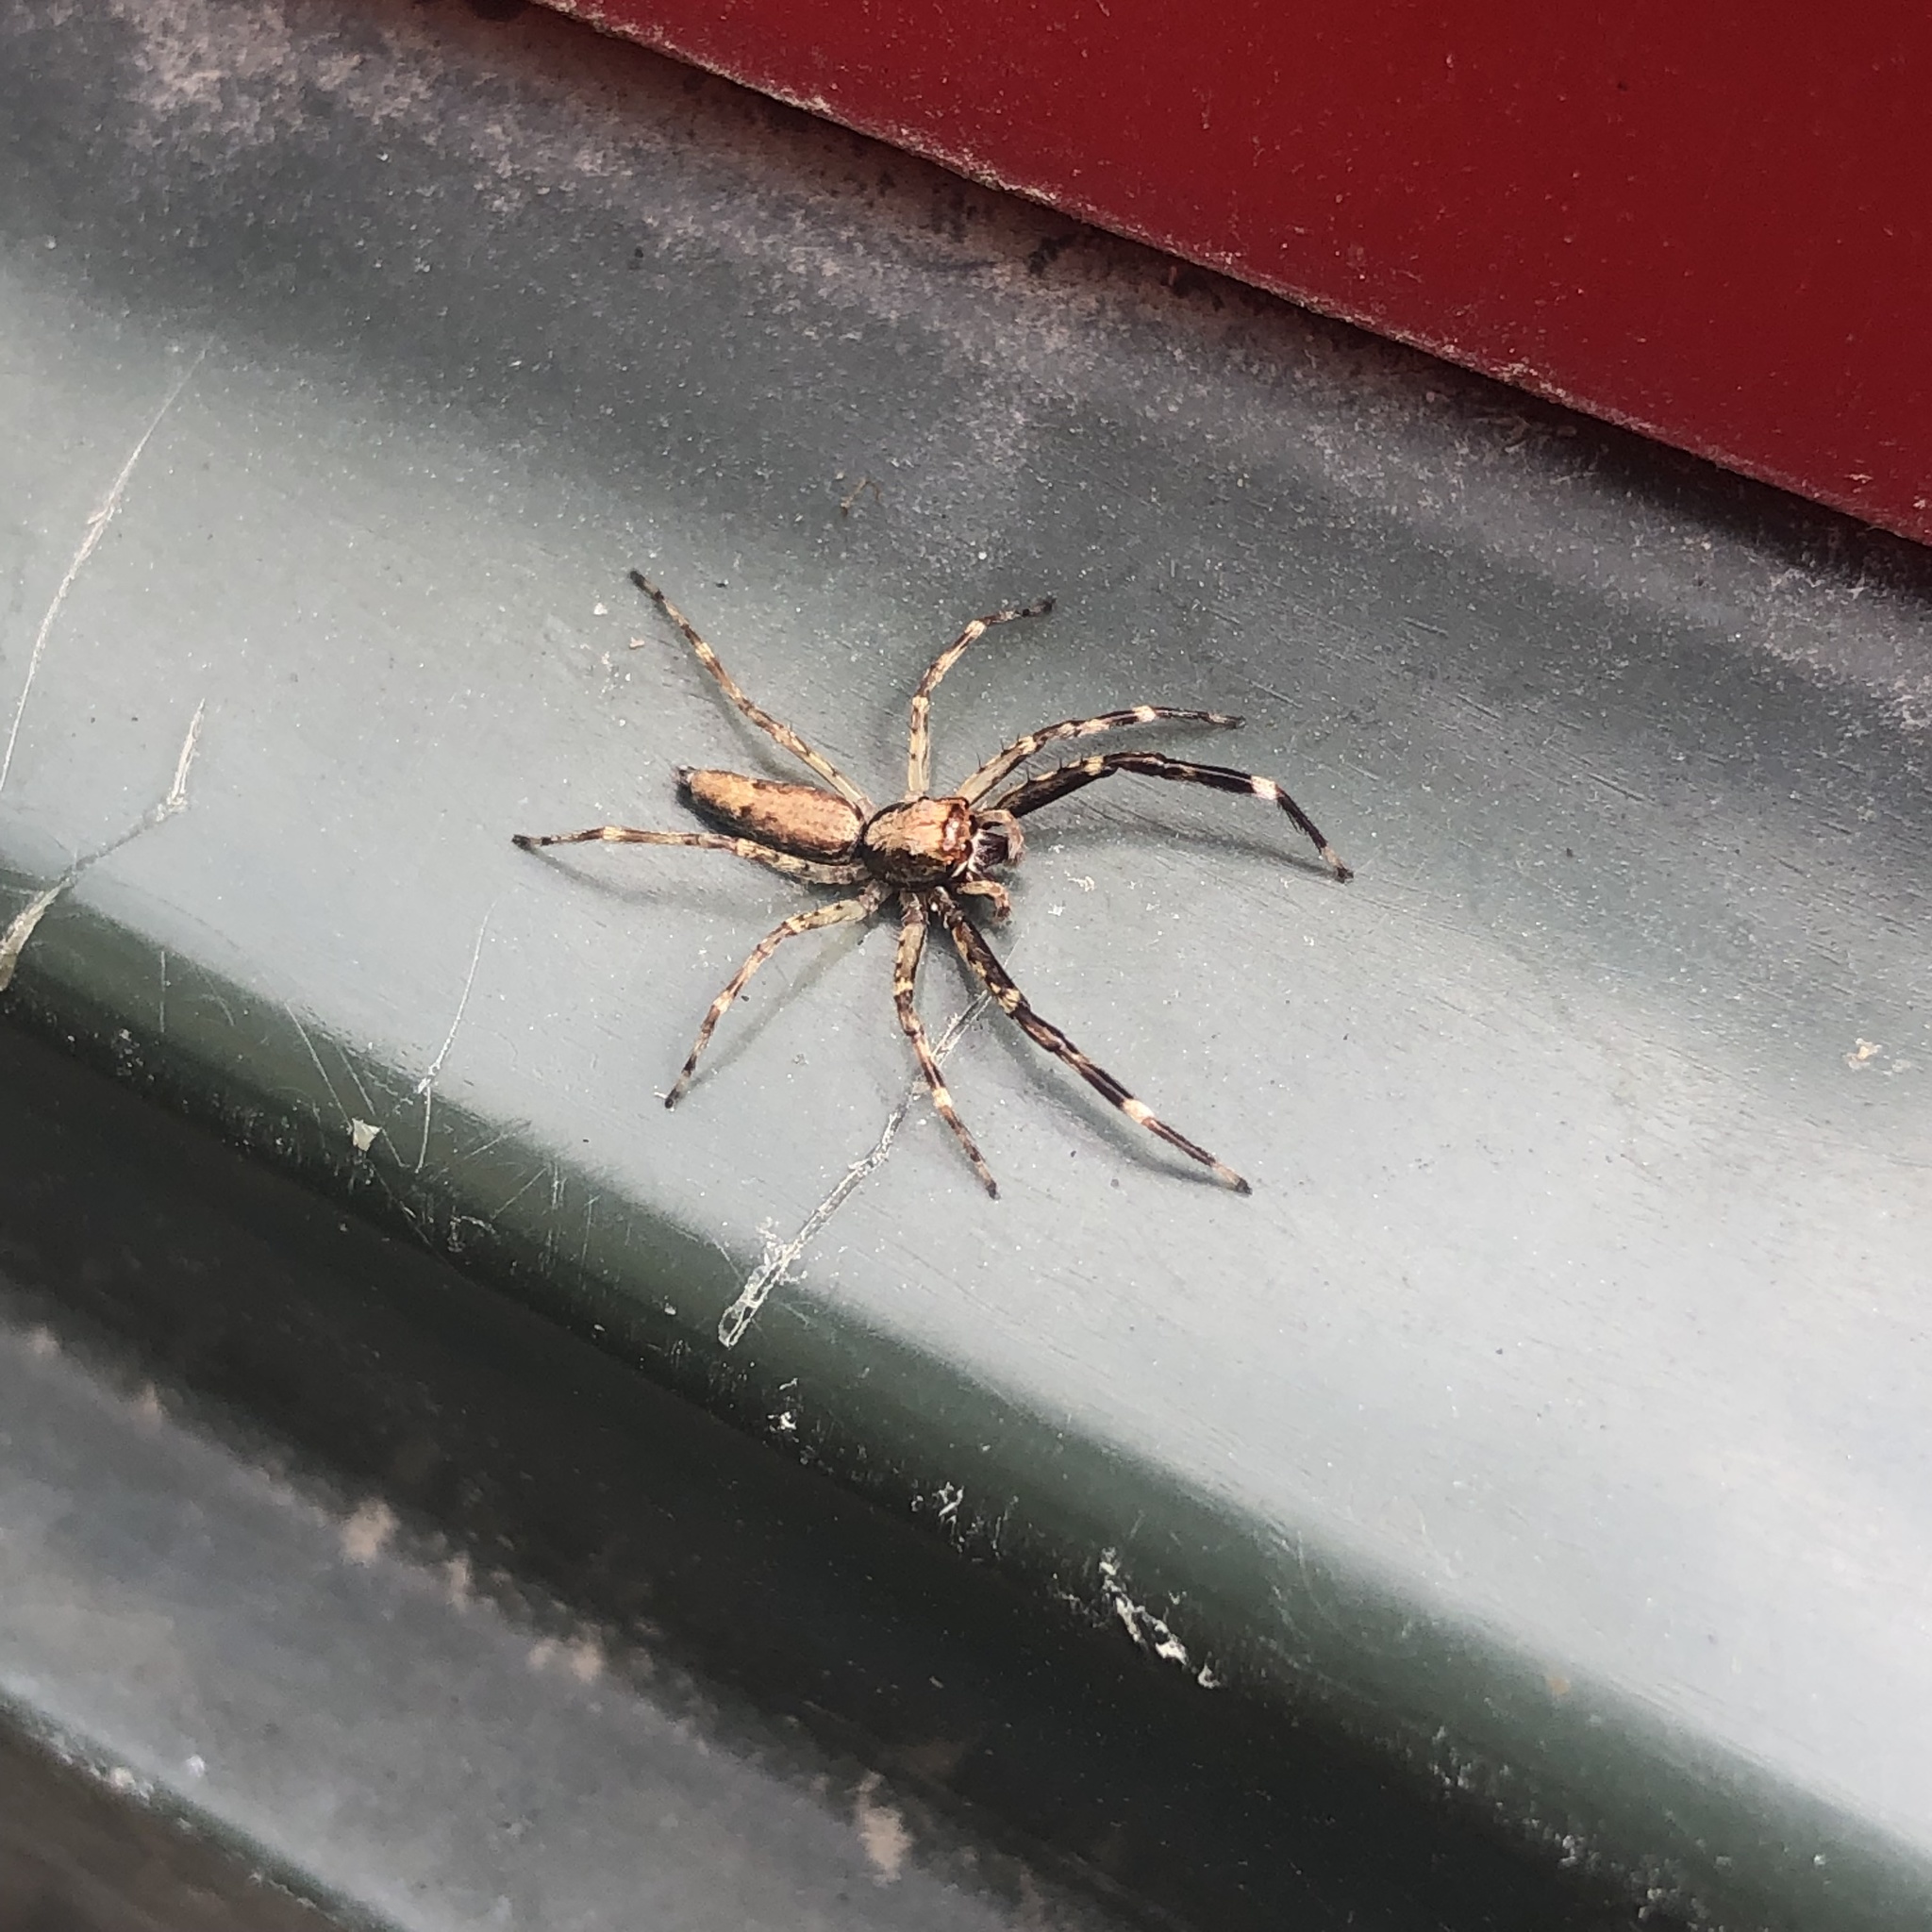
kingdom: Animalia
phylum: Arthropoda
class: Arachnida
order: Araneae
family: Salticidae
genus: Helpis
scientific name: Helpis minitabunda
